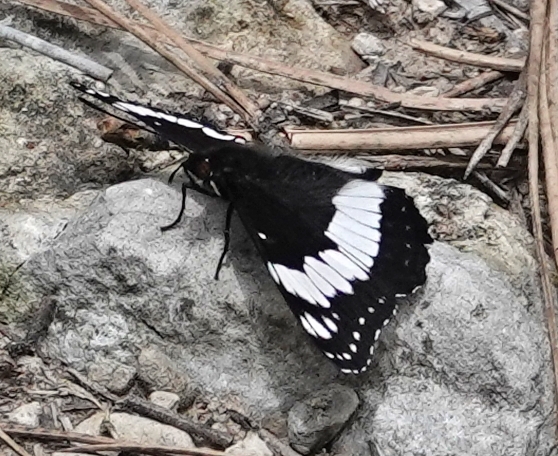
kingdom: Animalia
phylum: Arthropoda
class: Insecta
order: Lepidoptera
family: Nymphalidae
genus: Limenitis
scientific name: Limenitis weidemeyerii
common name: Weidemeyer's admiral
